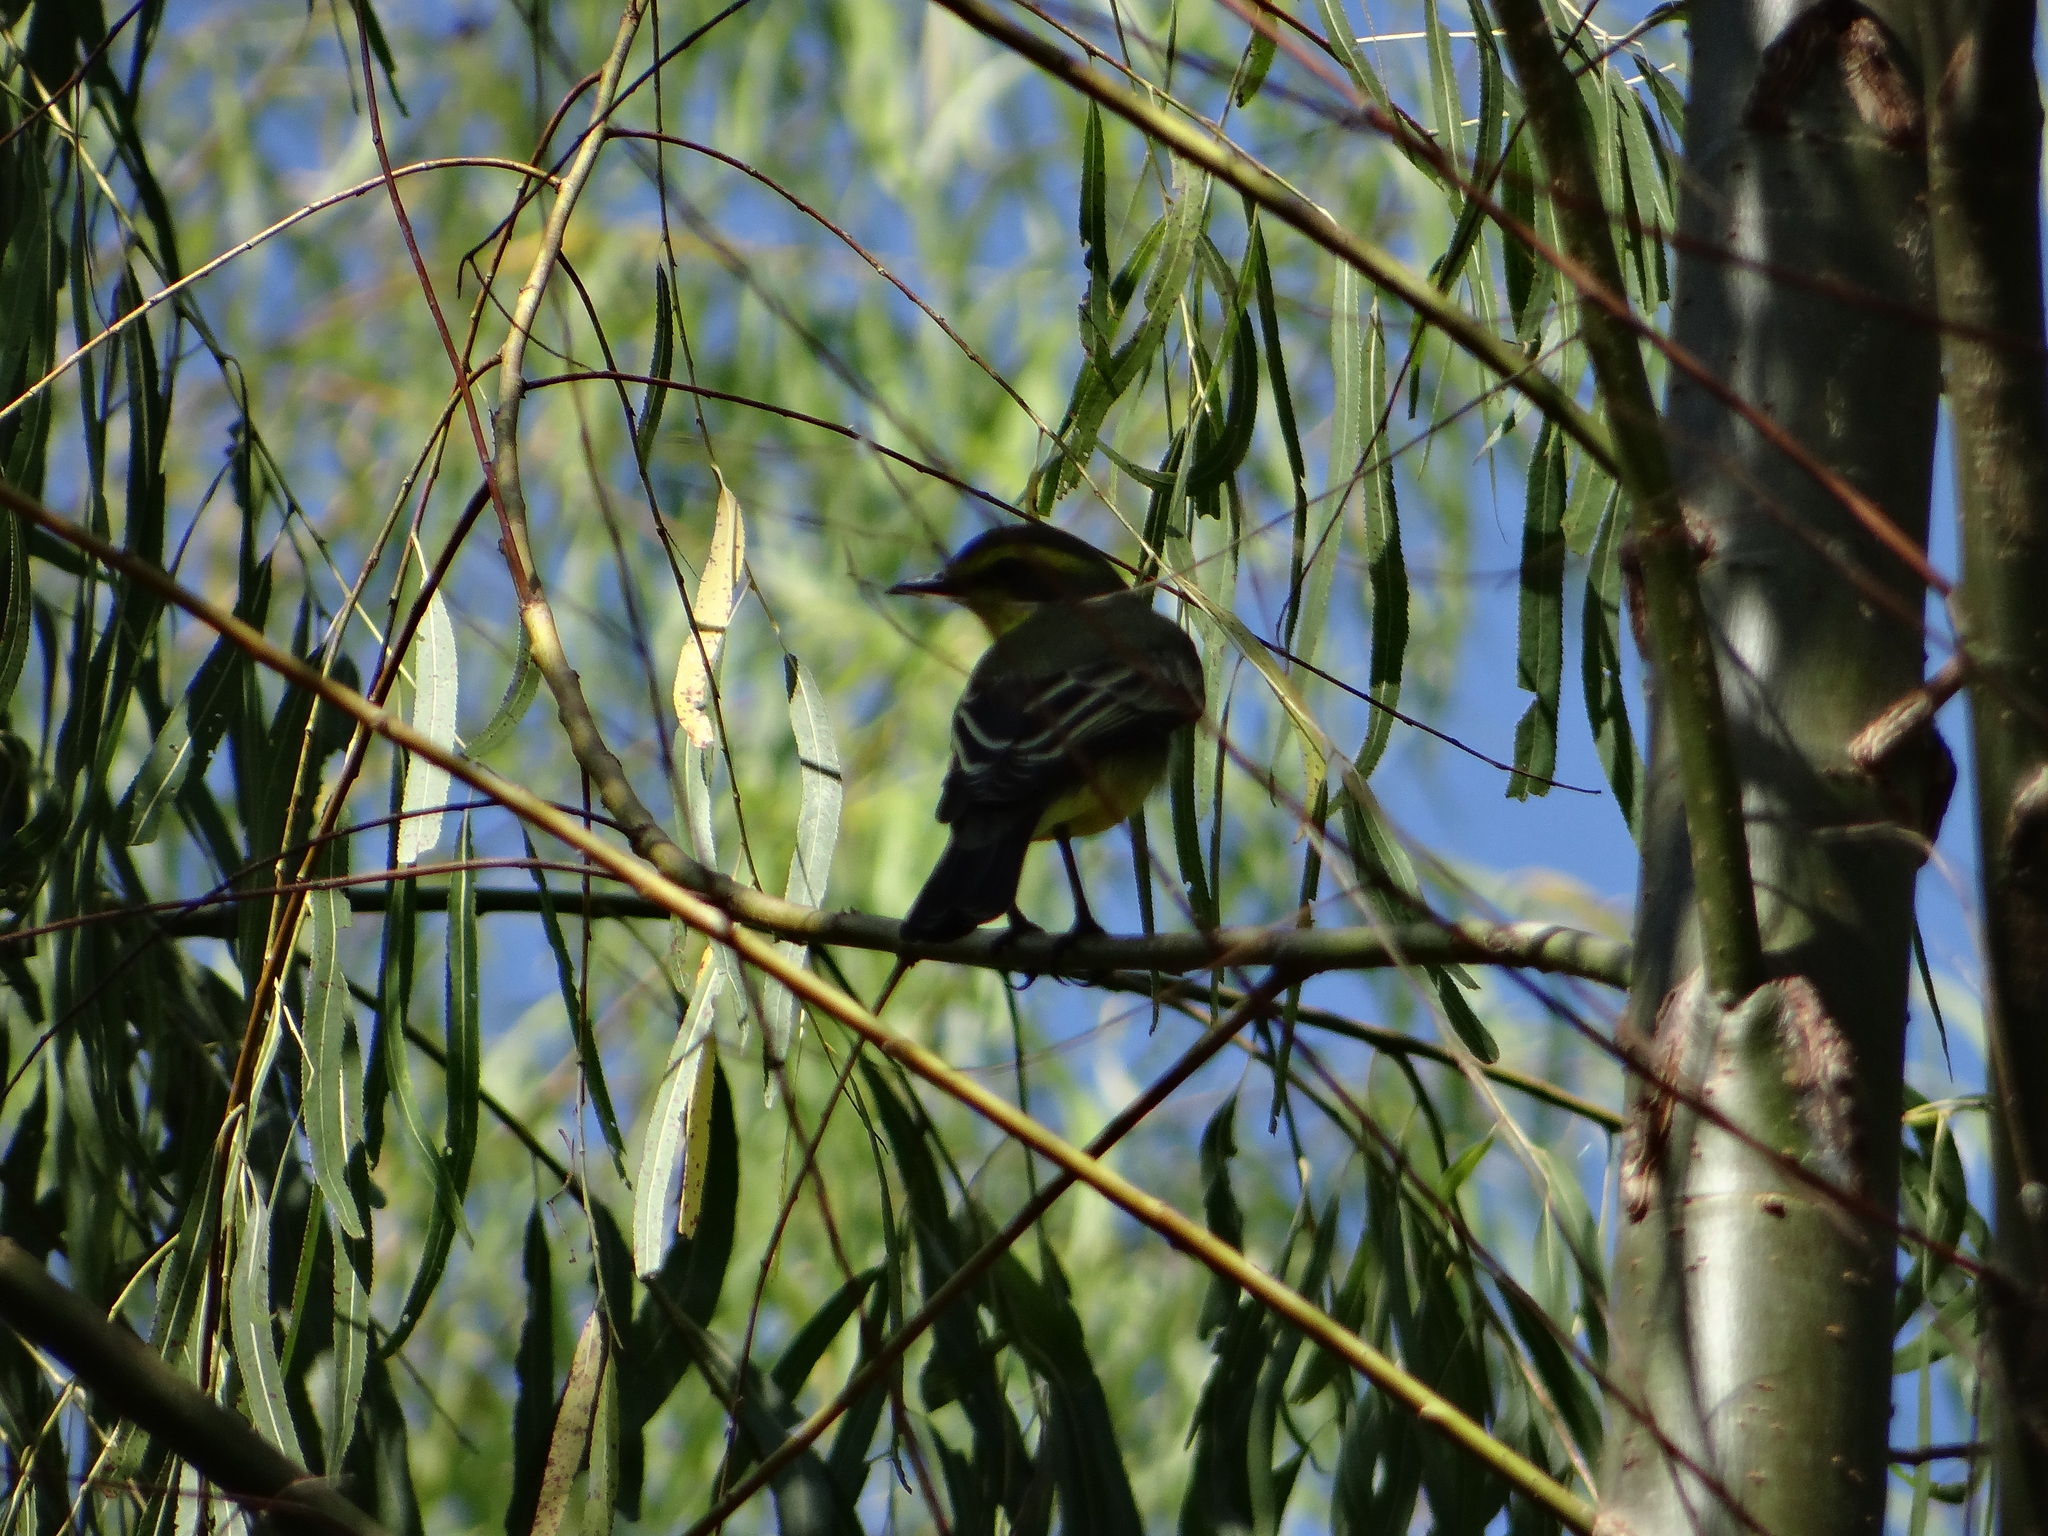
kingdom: Animalia
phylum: Chordata
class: Aves
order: Passeriformes
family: Tyrannidae
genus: Satrapa
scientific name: Satrapa icterophrys
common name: Yellow-browed tyrant
